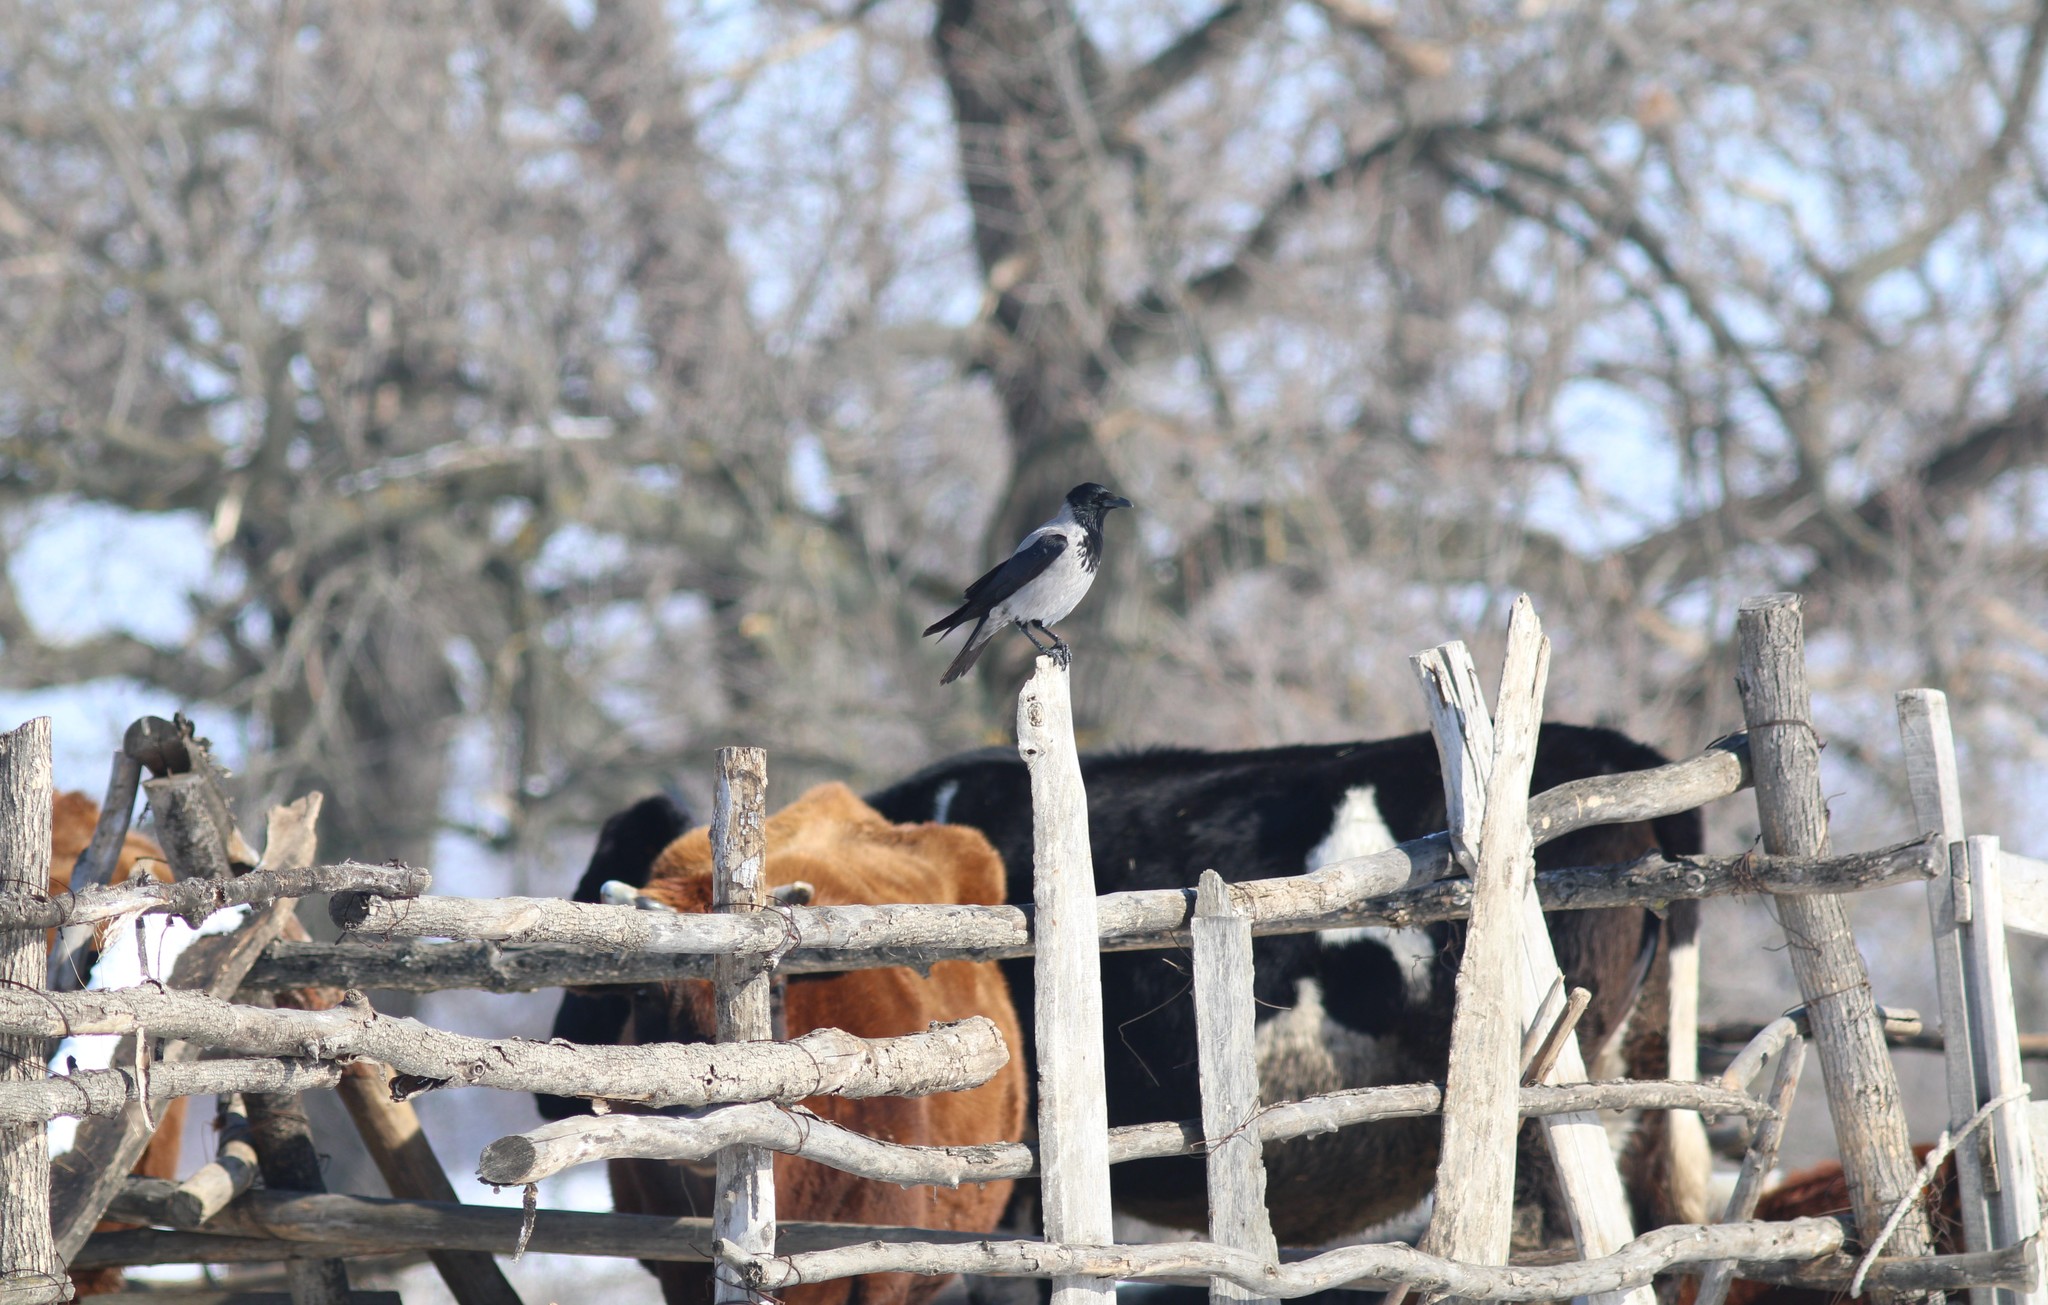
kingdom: Animalia
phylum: Chordata
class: Aves
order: Passeriformes
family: Corvidae
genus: Corvus
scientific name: Corvus cornix
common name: Hooded crow
